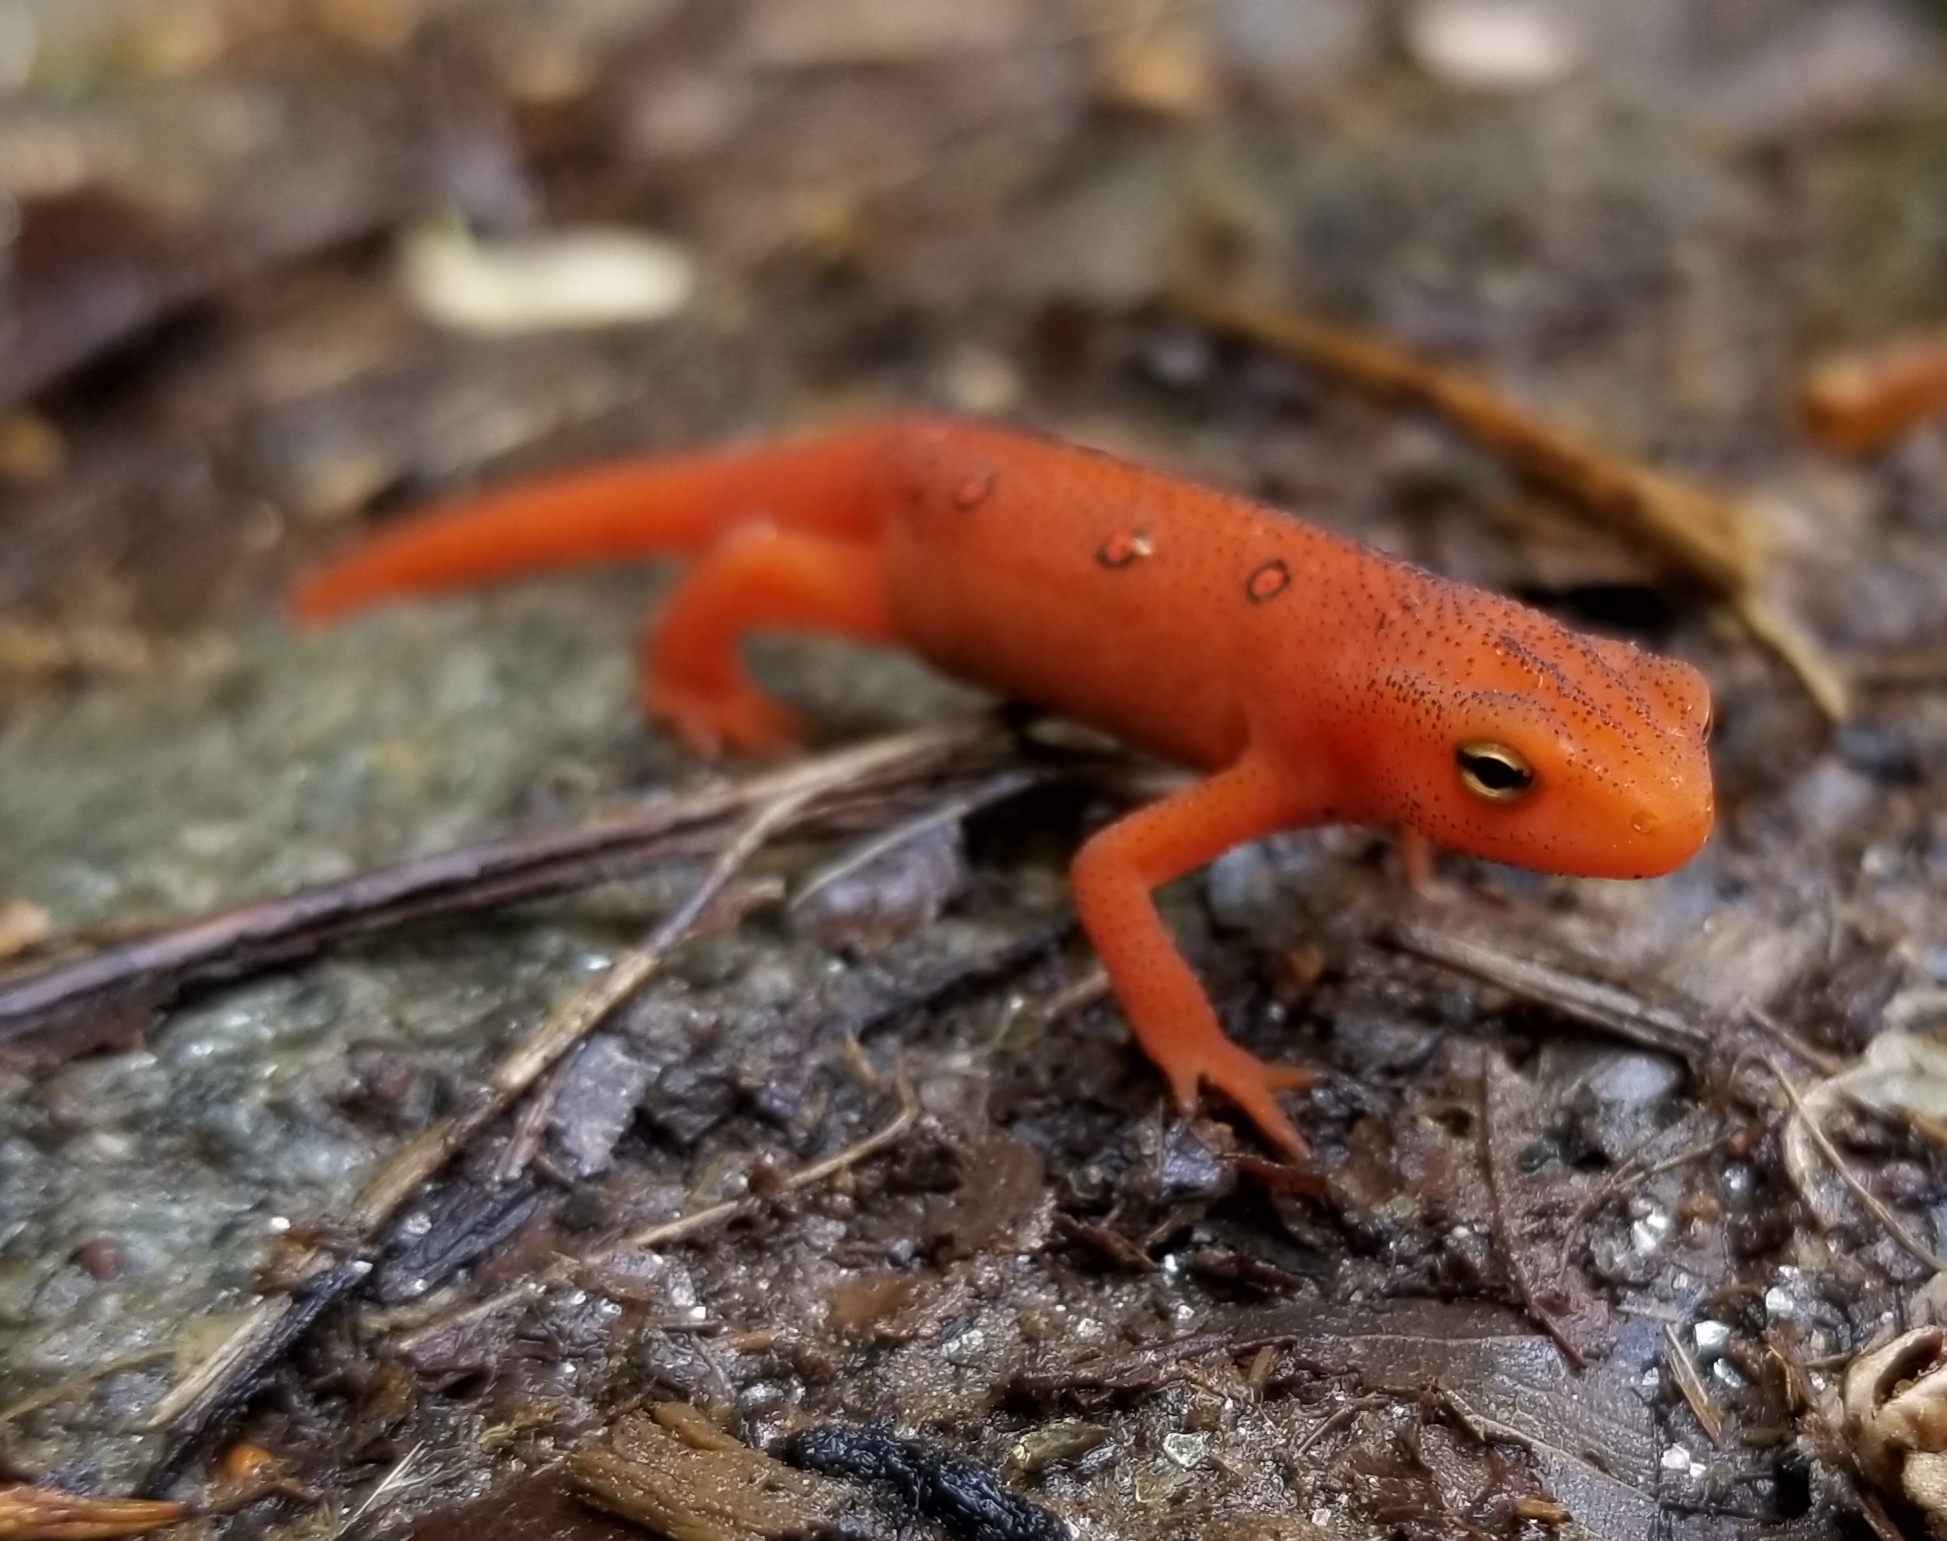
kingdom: Animalia
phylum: Chordata
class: Amphibia
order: Caudata
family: Salamandridae
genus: Notophthalmus
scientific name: Notophthalmus viridescens
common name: Eastern newt
